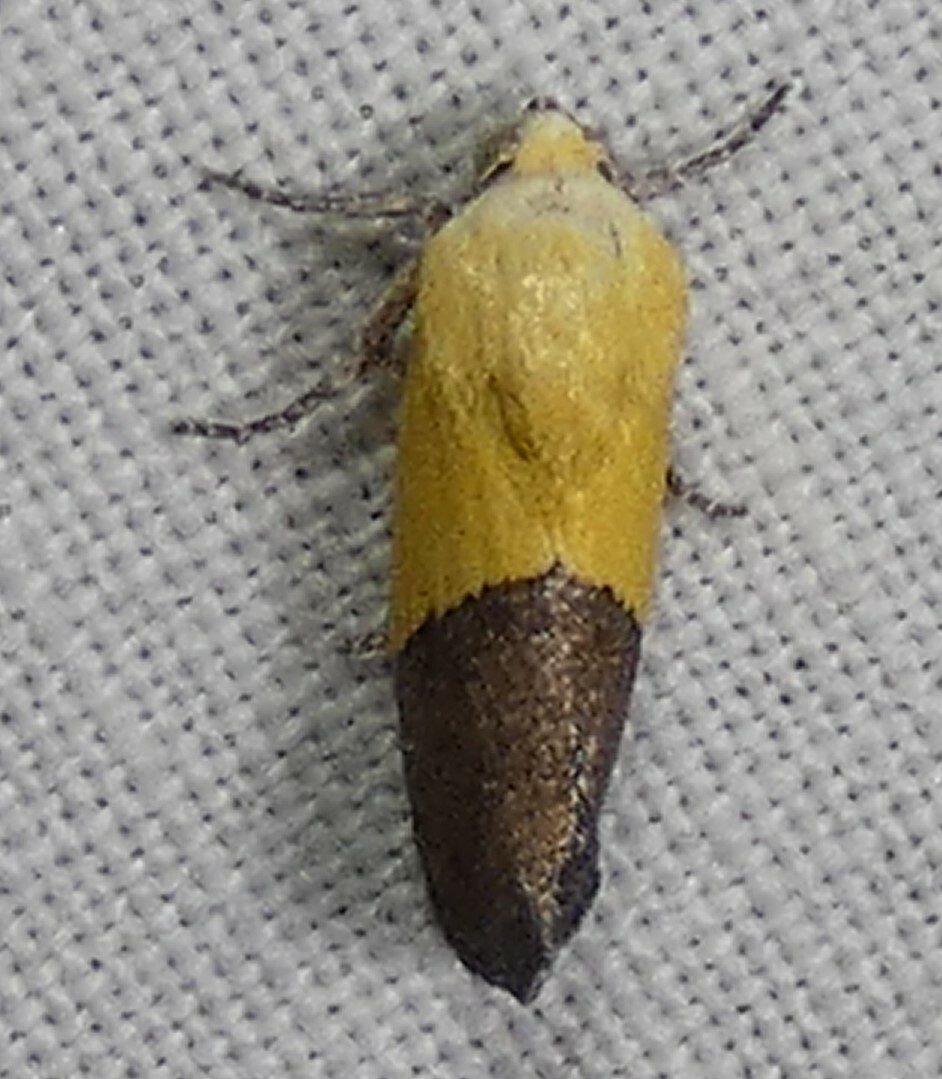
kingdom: Animalia
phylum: Arthropoda
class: Insecta
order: Lepidoptera
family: Noctuidae
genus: Acontia
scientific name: Acontia semiflava
